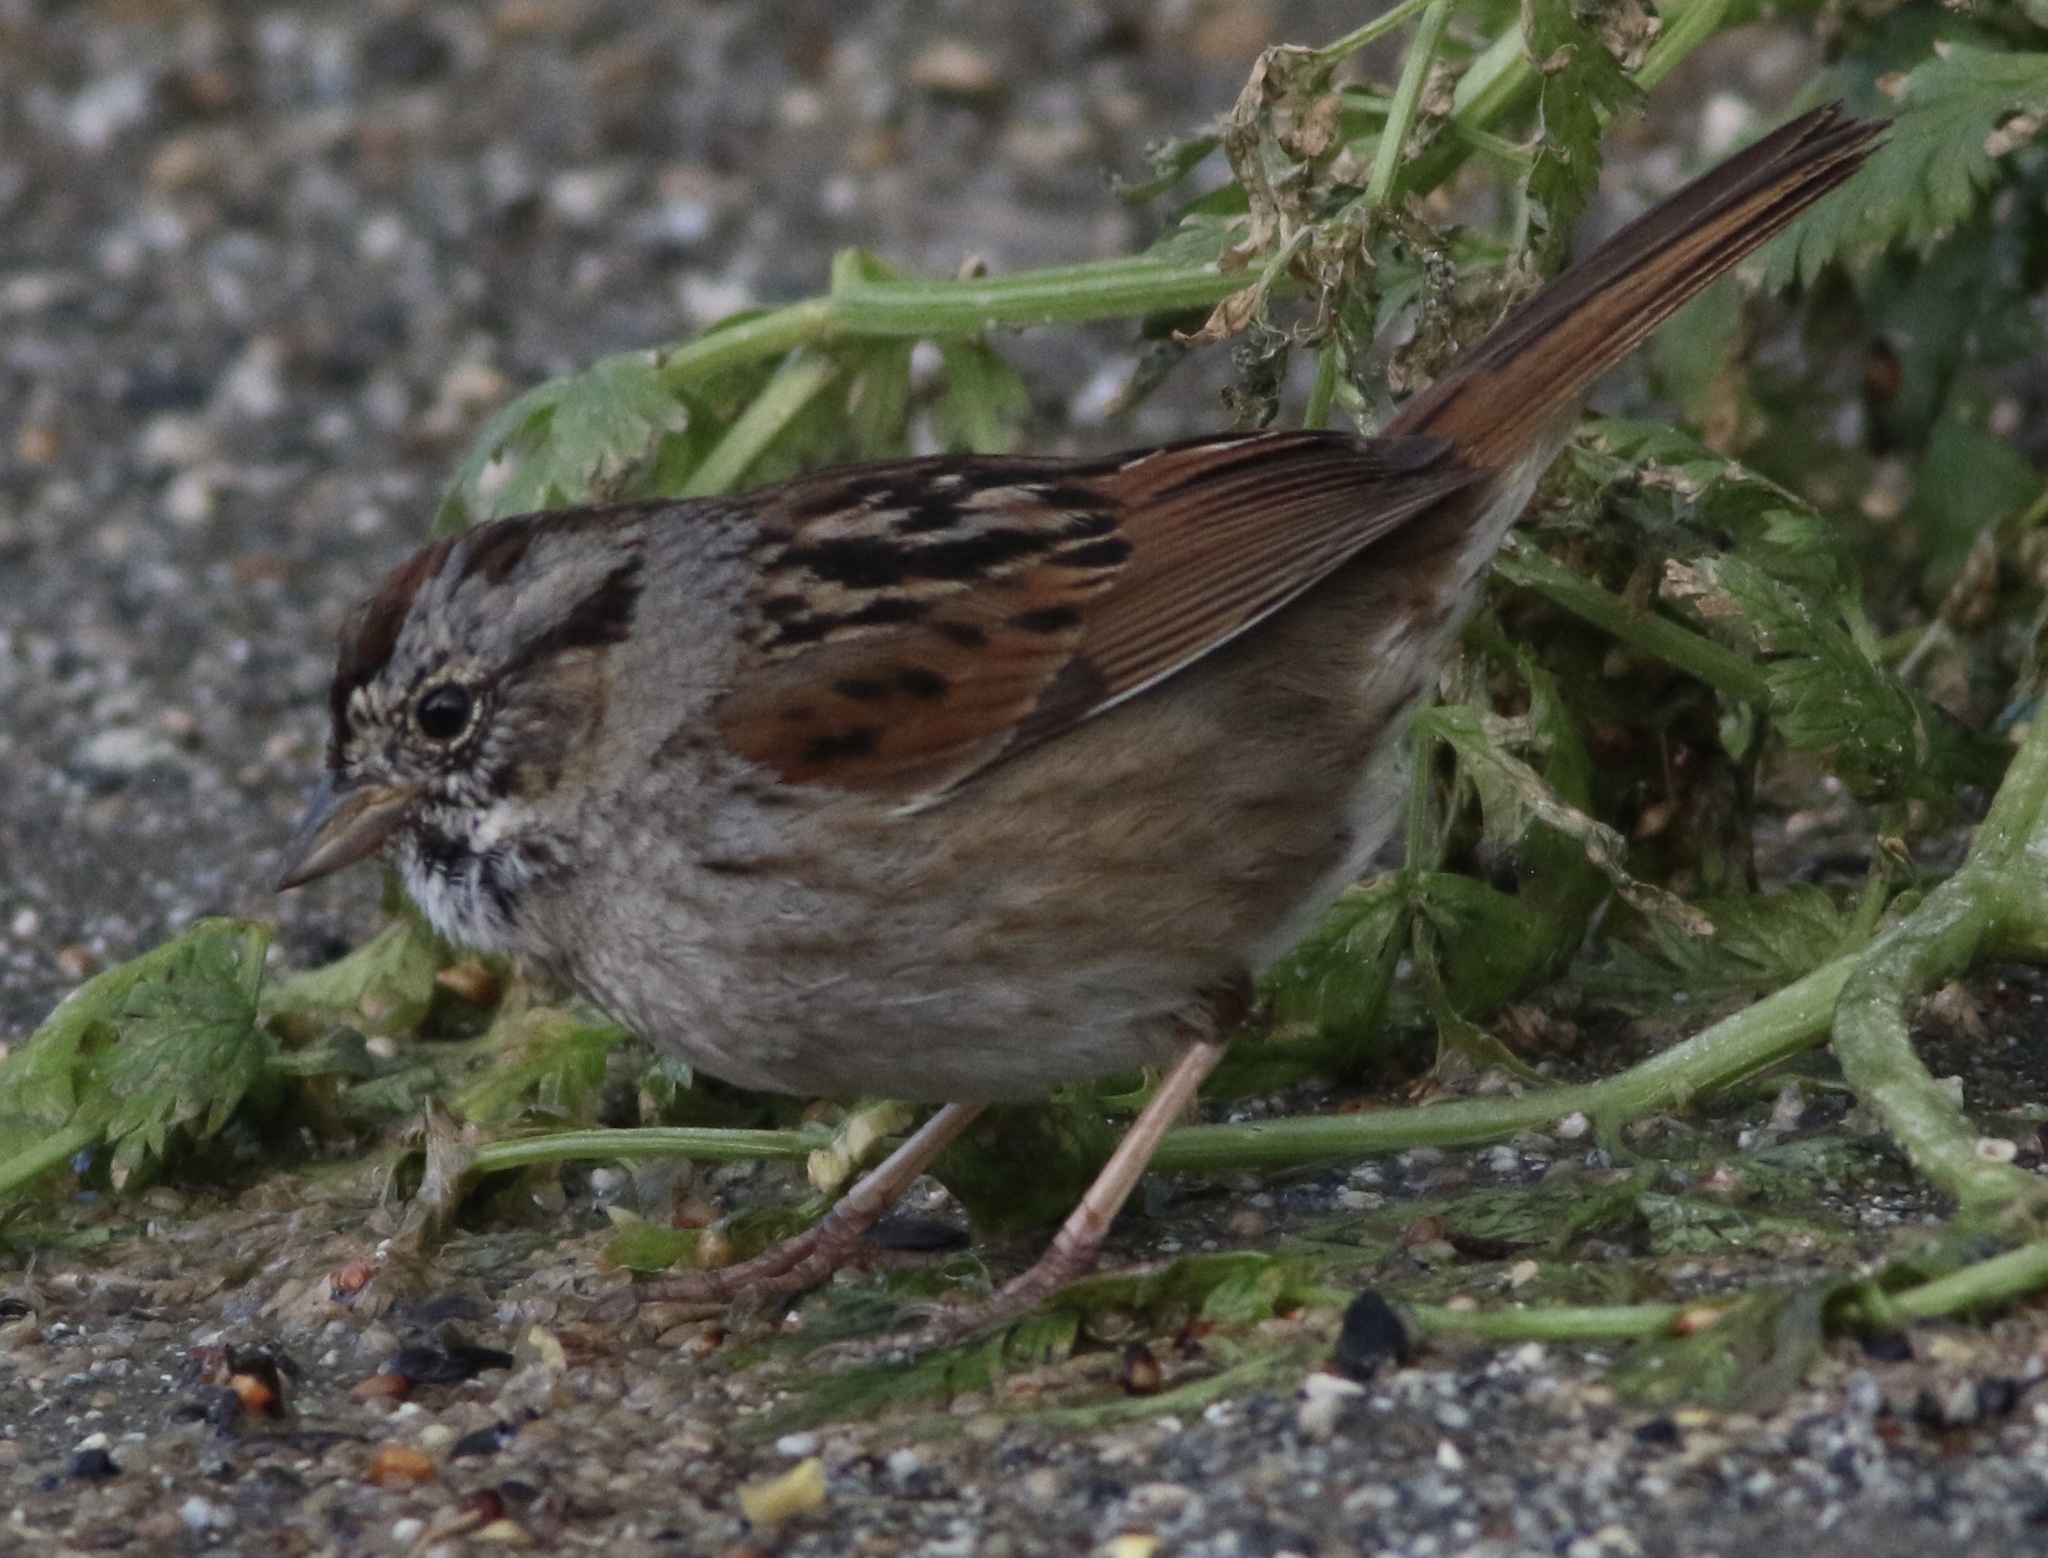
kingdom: Animalia
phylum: Chordata
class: Aves
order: Passeriformes
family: Passerellidae
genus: Melospiza
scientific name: Melospiza georgiana
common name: Swamp sparrow
